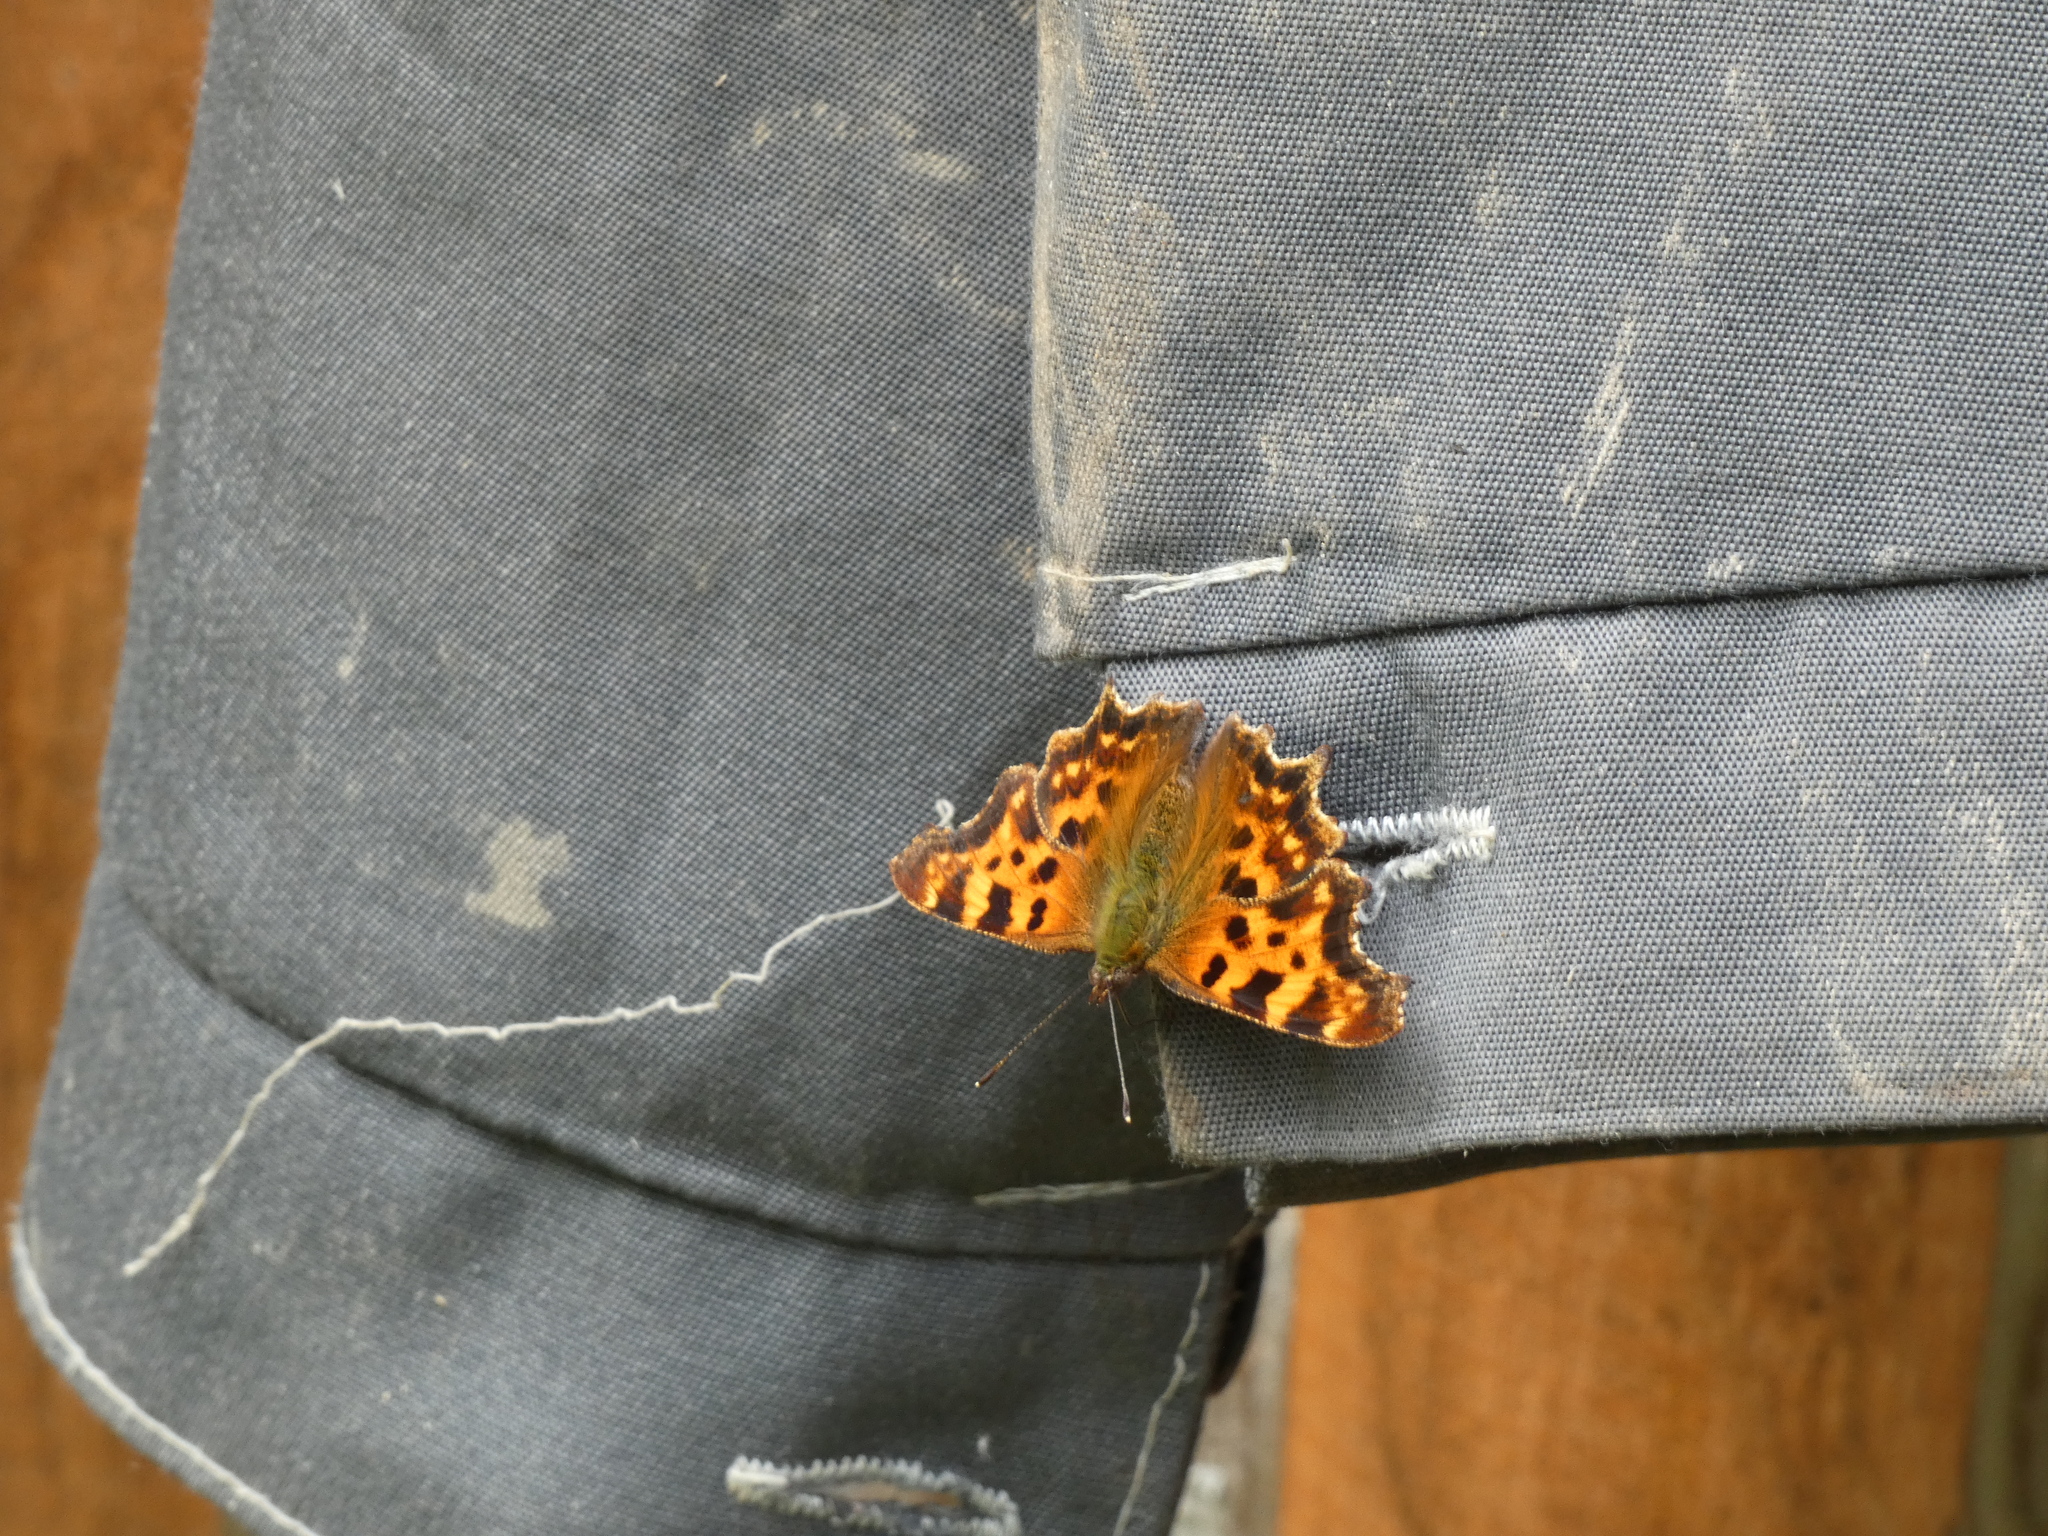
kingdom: Animalia
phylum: Arthropoda
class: Insecta
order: Lepidoptera
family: Nymphalidae
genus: Polygonia
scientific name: Polygonia c-album
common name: Comma
